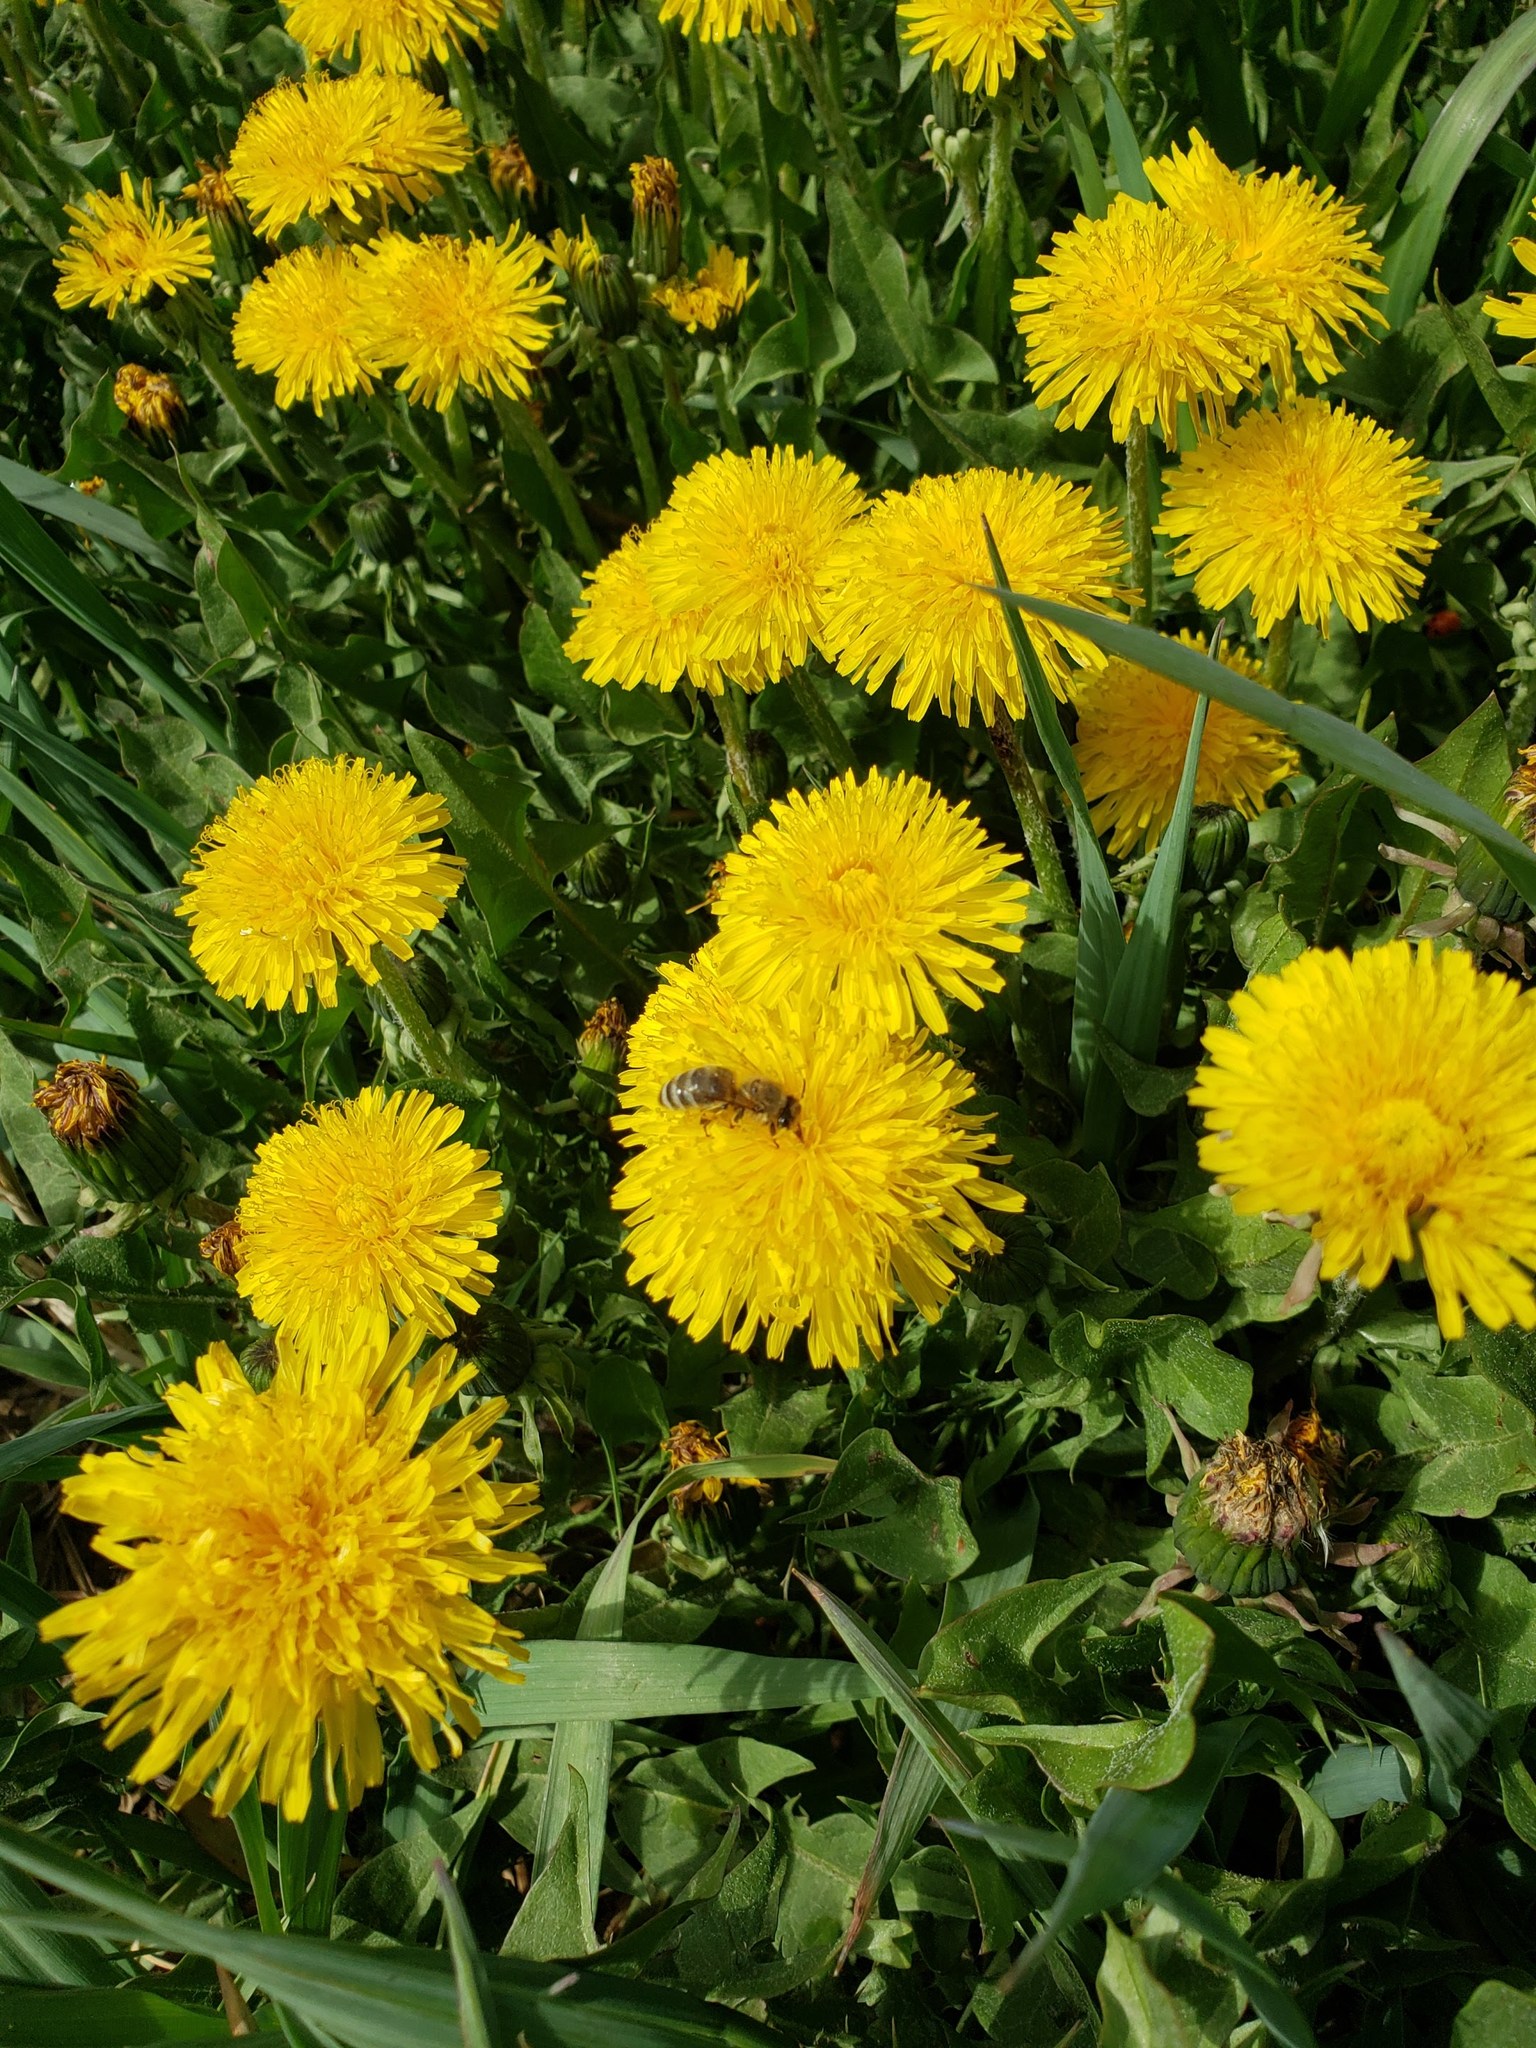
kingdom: Plantae
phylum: Tracheophyta
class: Magnoliopsida
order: Asterales
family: Asteraceae
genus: Taraxacum
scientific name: Taraxacum officinale
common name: Common dandelion
